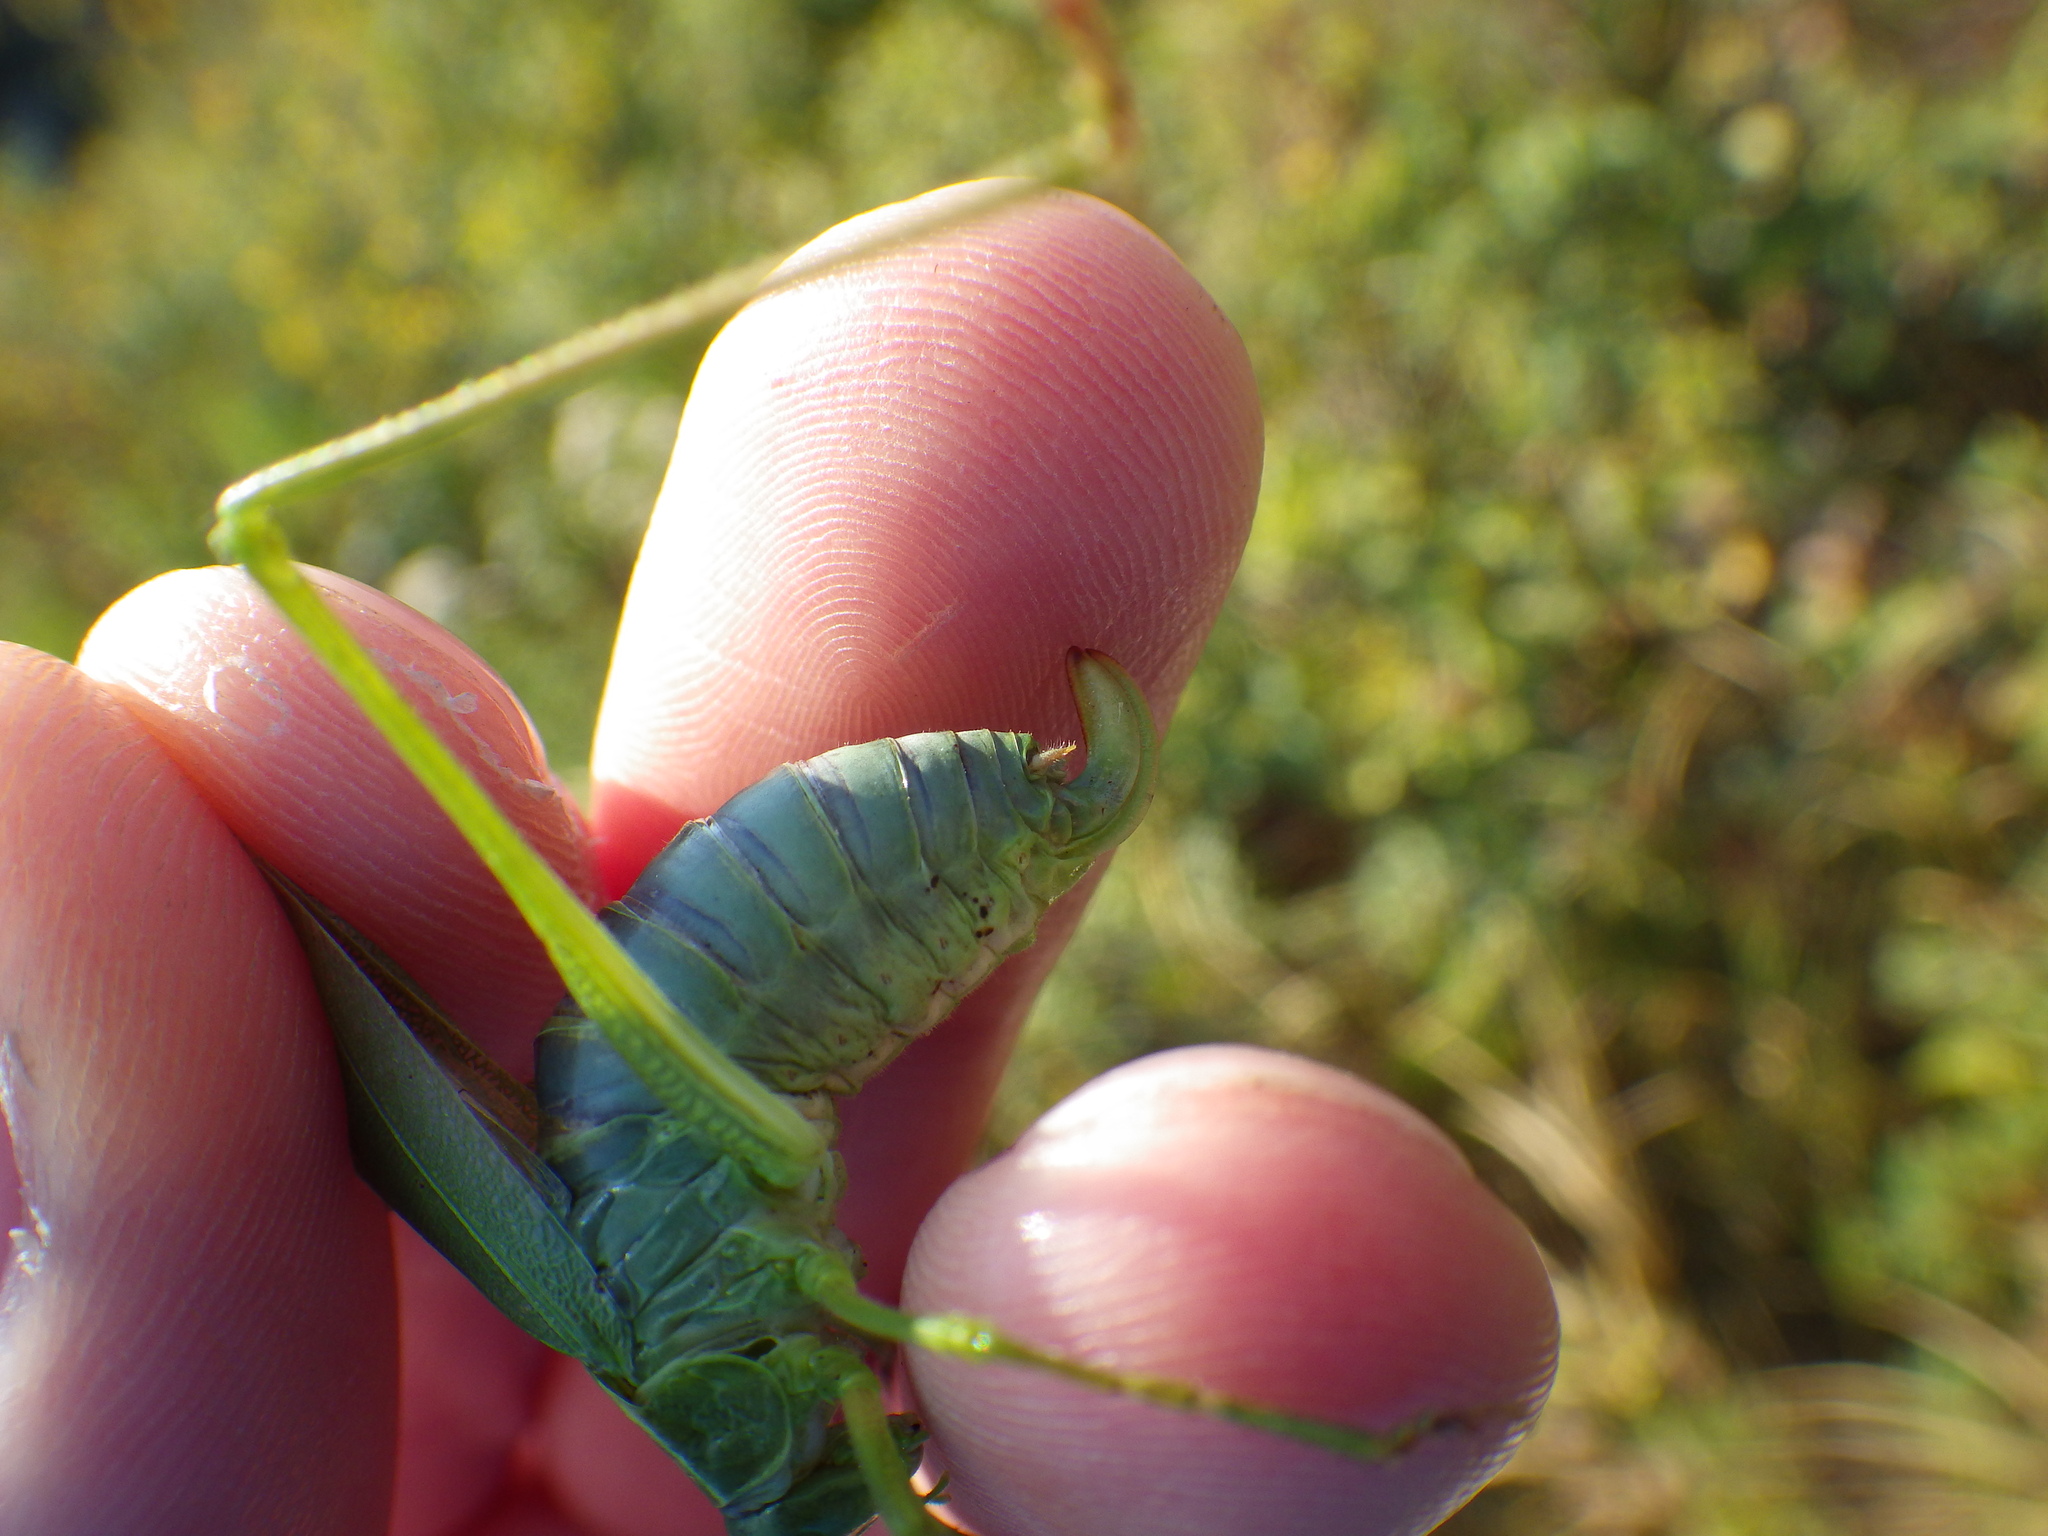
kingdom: Animalia
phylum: Arthropoda
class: Insecta
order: Orthoptera
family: Tettigoniidae
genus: Scudderia
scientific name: Scudderia pistillata
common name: Broad-winged bush-katydid
